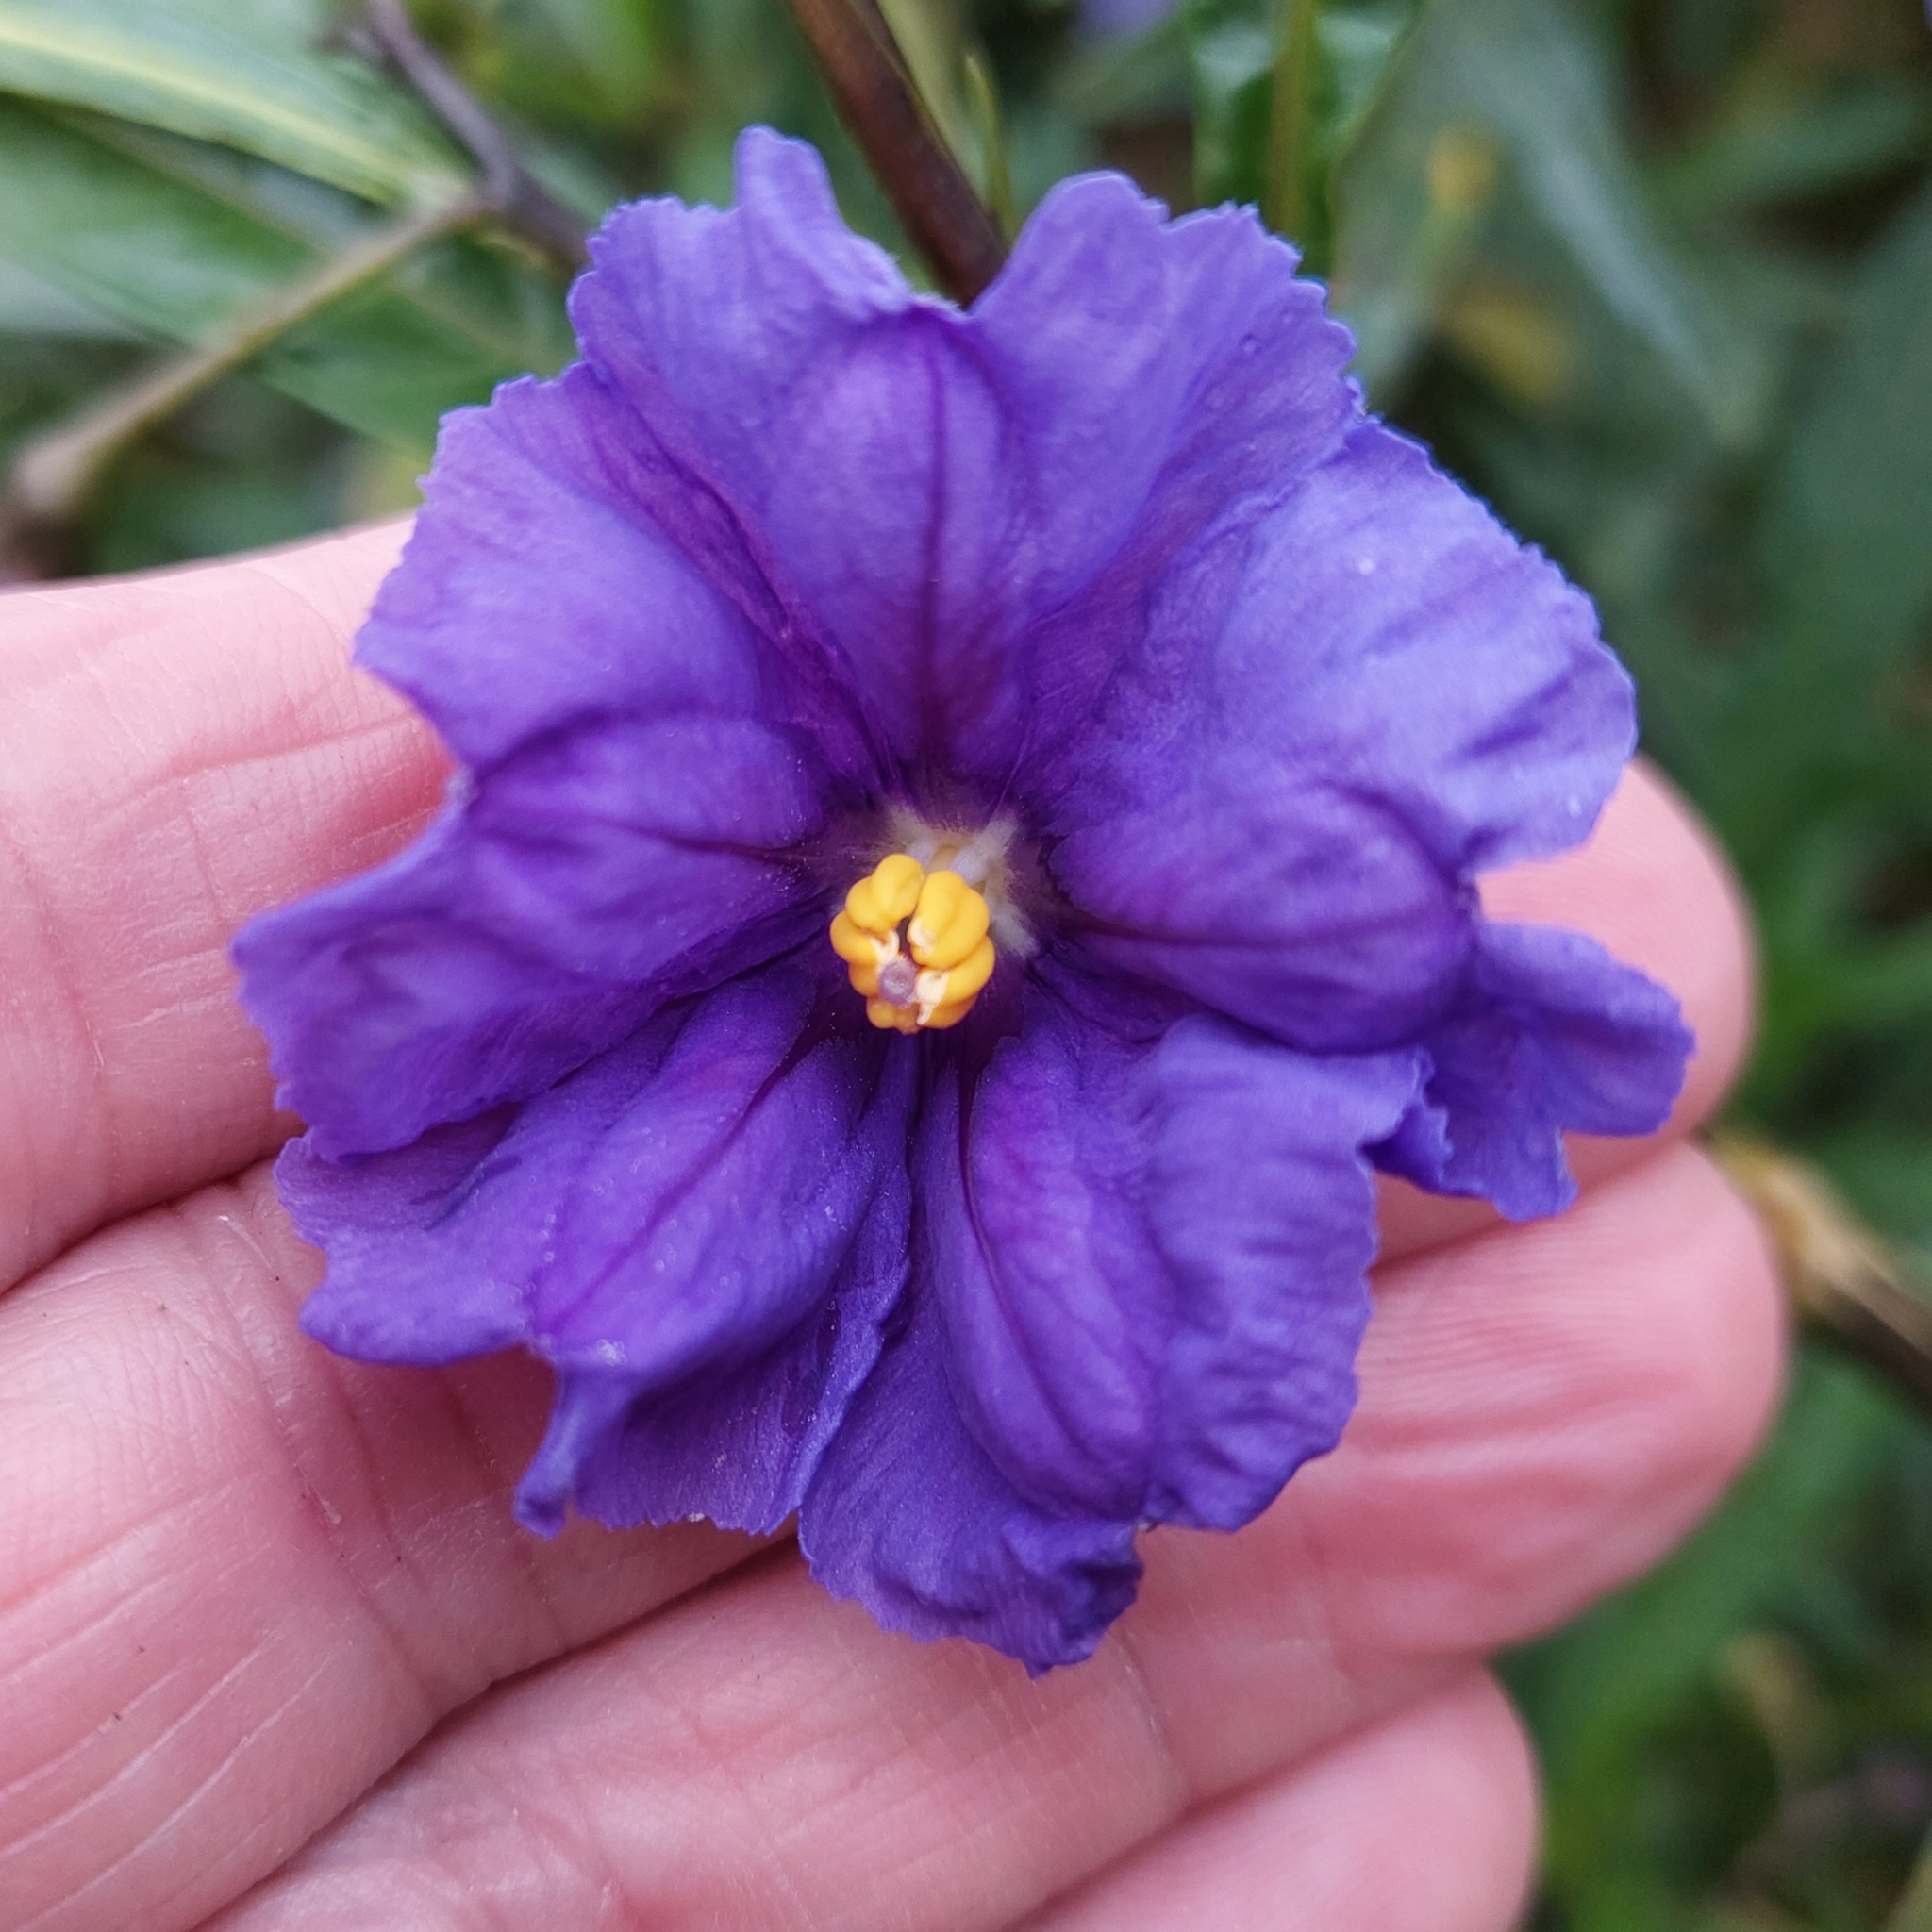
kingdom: Plantae
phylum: Tracheophyta
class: Magnoliopsida
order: Solanales
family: Solanaceae
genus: Solanum
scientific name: Solanum laciniatum
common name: Kangaroo-apple
